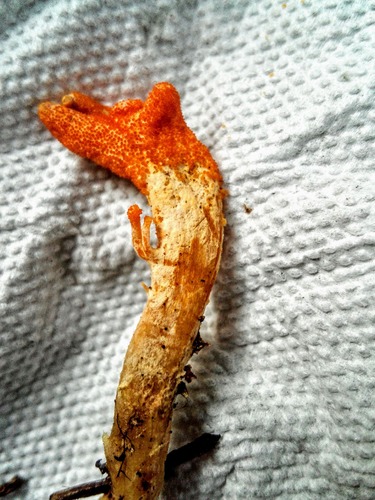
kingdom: Fungi
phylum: Ascomycota
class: Sordariomycetes
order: Hypocreales
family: Cordycipitaceae
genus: Cordyceps
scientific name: Cordyceps militaris
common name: Scarlet caterpillar fungus
